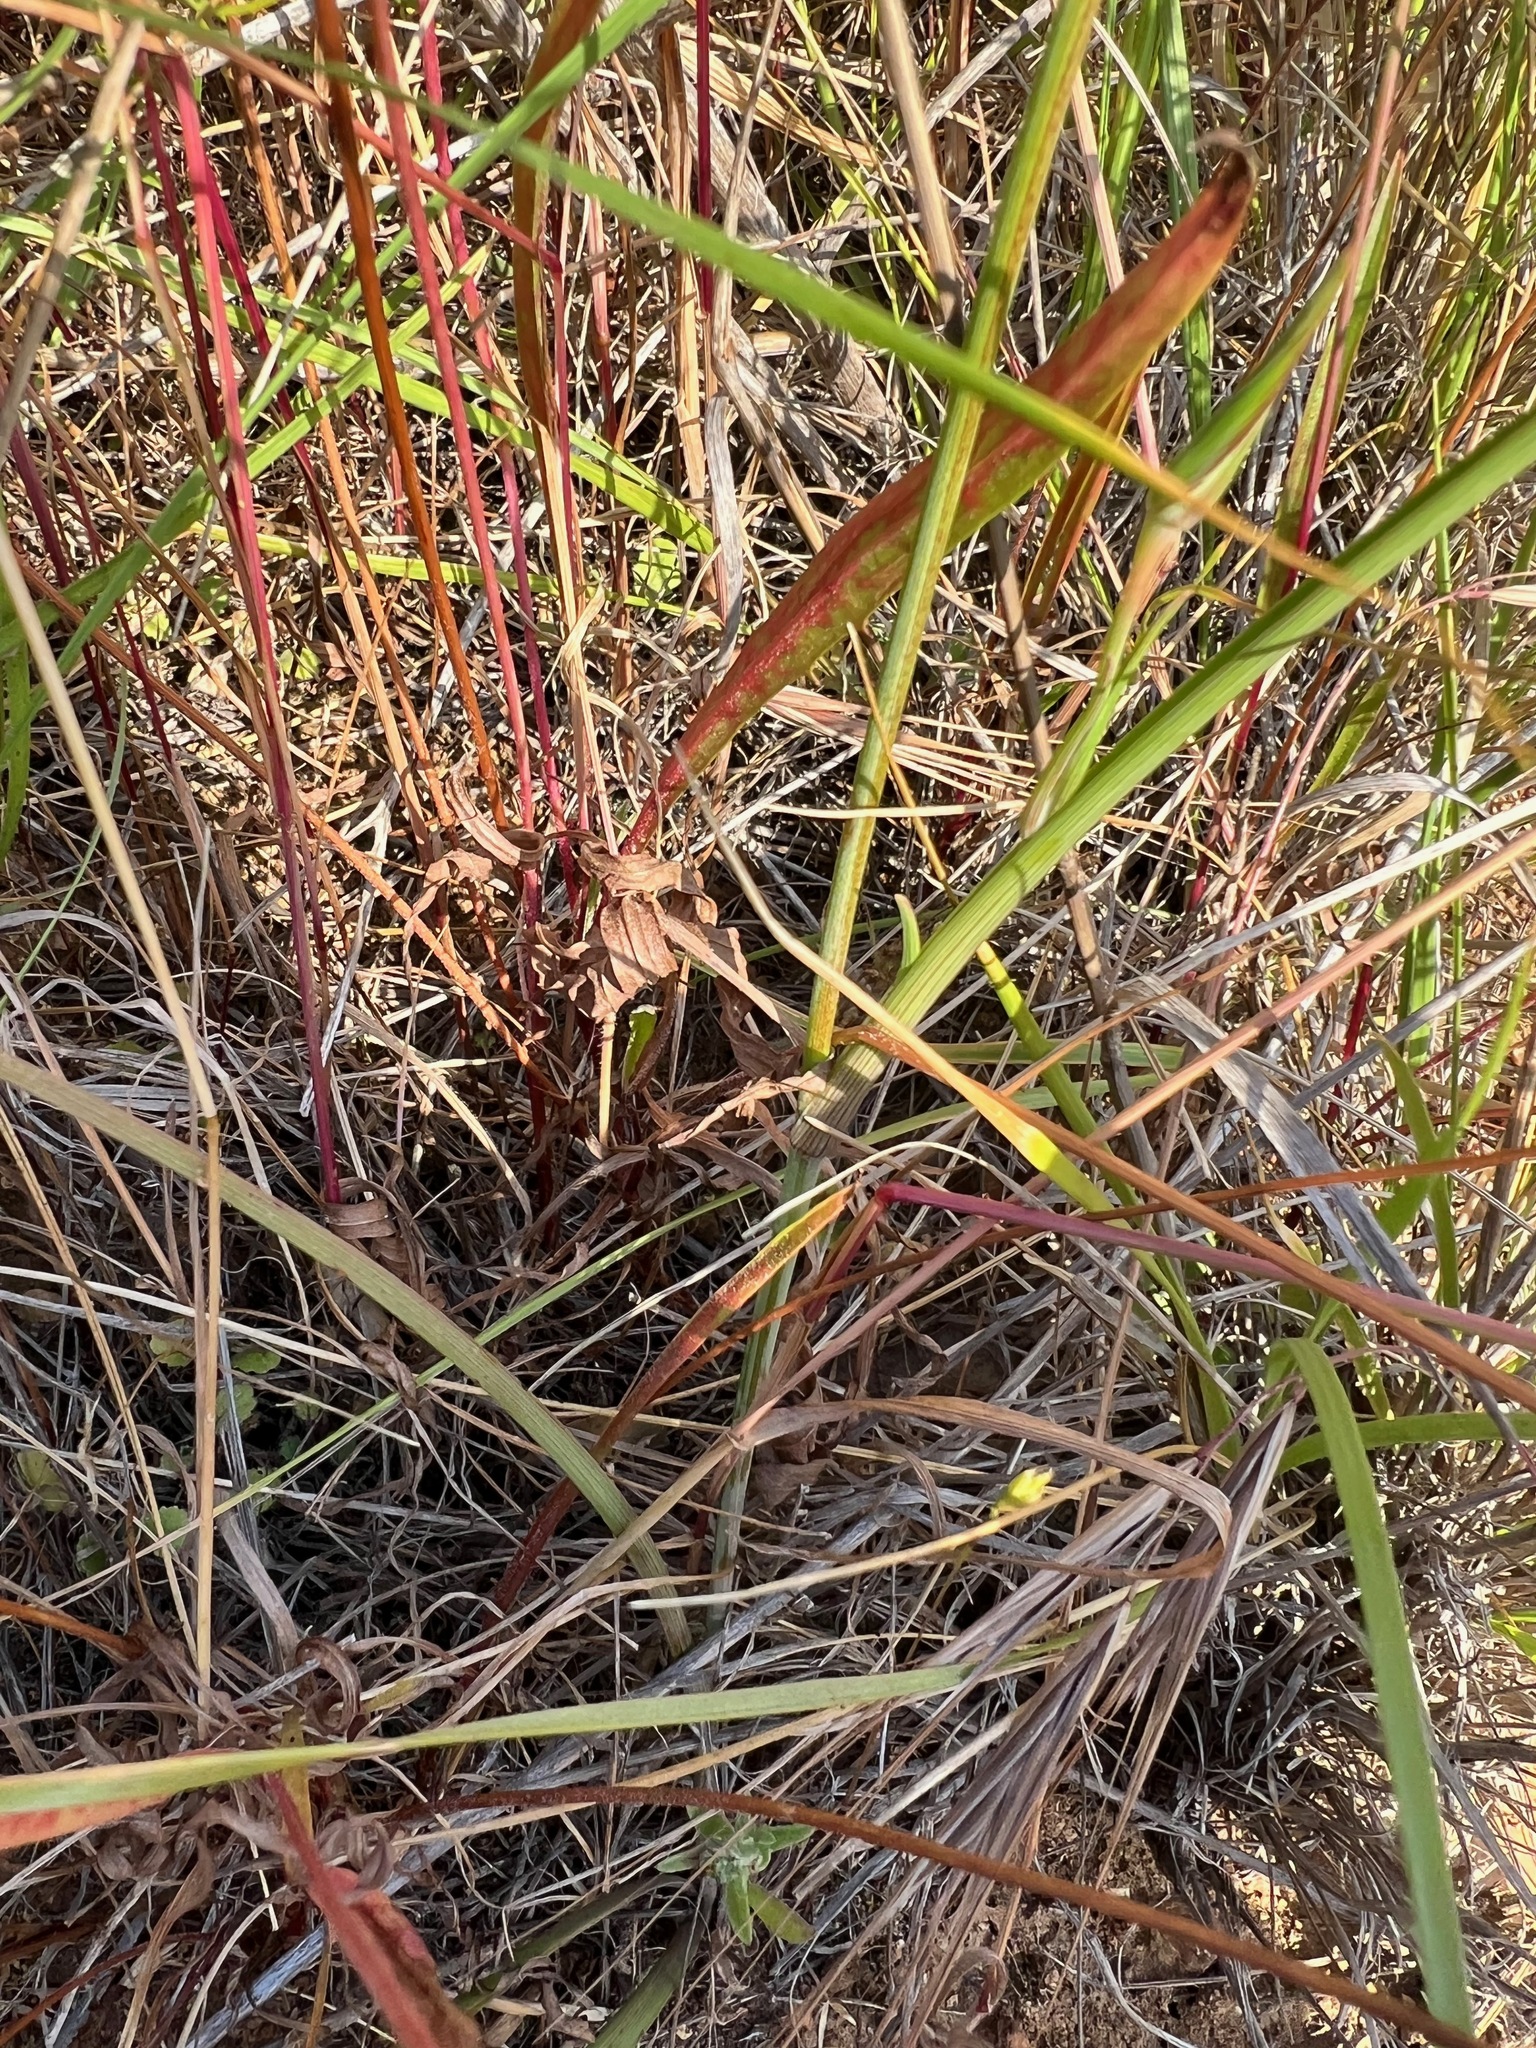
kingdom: Plantae
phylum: Tracheophyta
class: Liliopsida
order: Liliales
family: Liliaceae
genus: Calochortus
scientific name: Calochortus splendens
